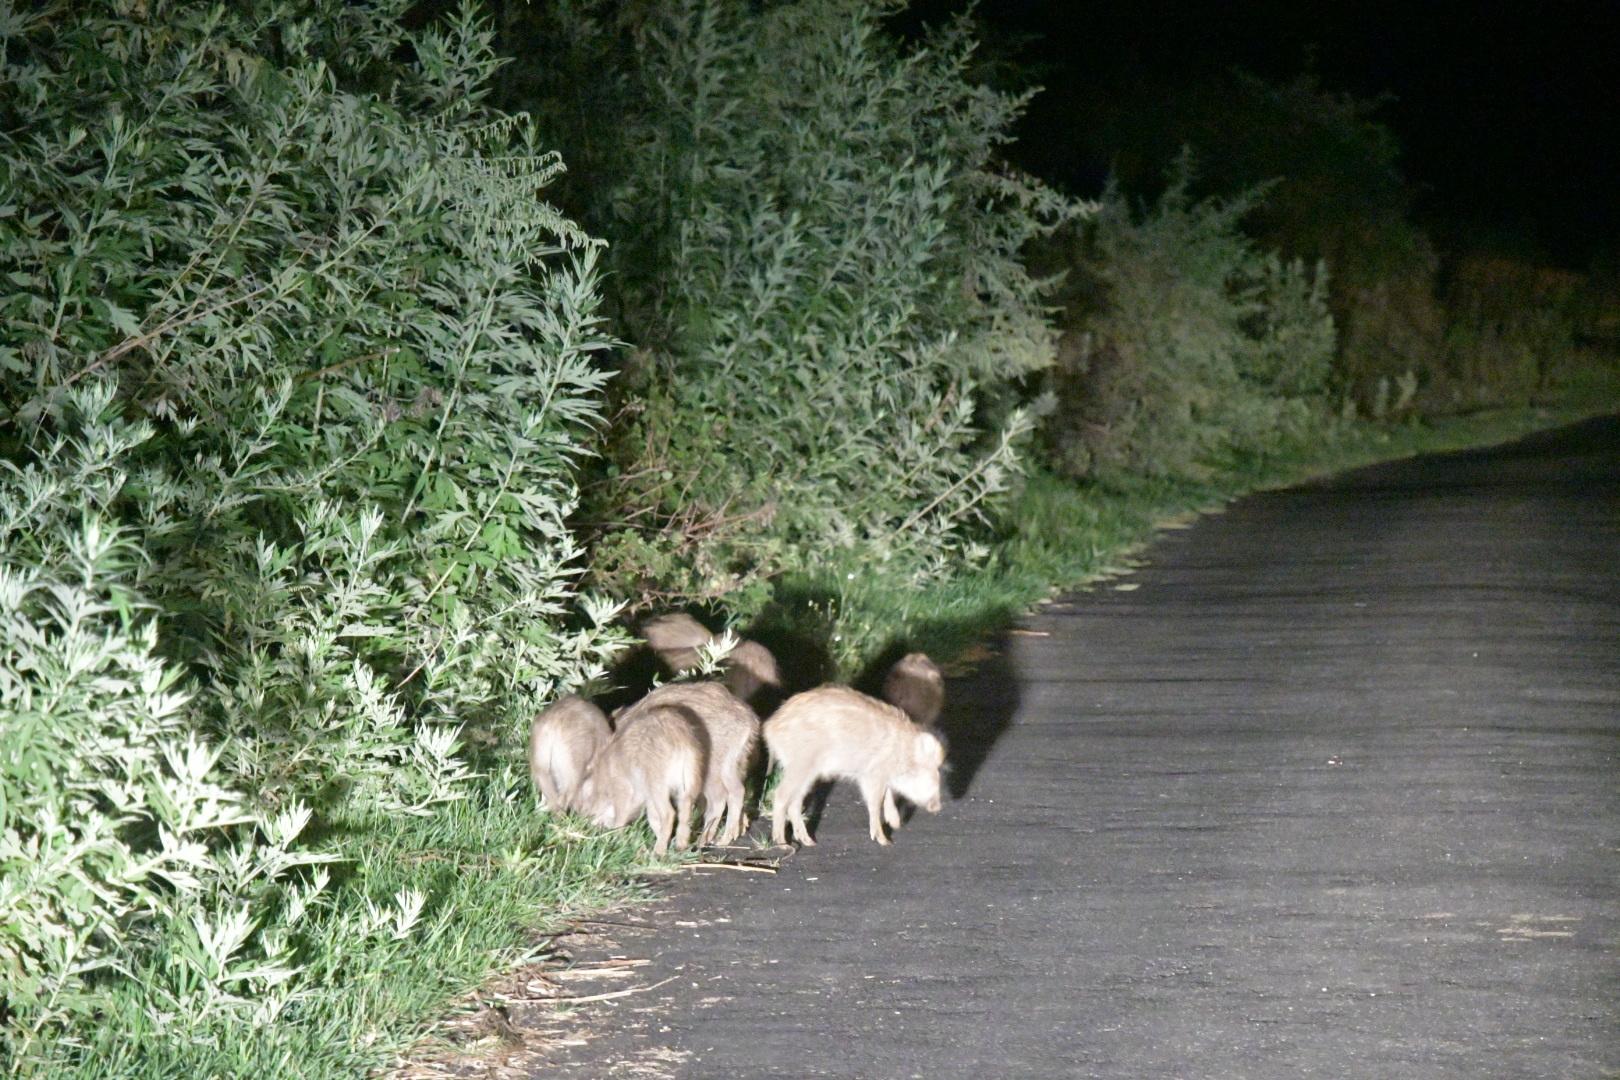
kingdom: Animalia
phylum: Chordata
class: Mammalia
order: Artiodactyla
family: Suidae
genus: Sus
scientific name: Sus scrofa
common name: Wild boar
